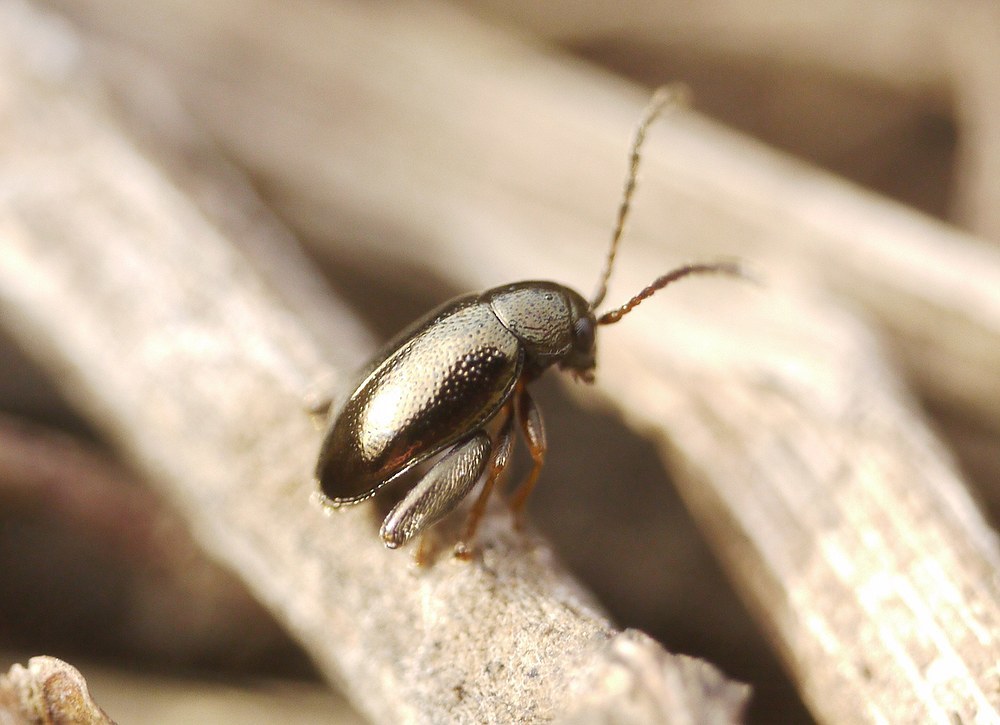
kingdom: Animalia
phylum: Arthropoda
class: Insecta
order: Coleoptera
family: Chrysomelidae
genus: Longitarsus
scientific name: Longitarsus echii
